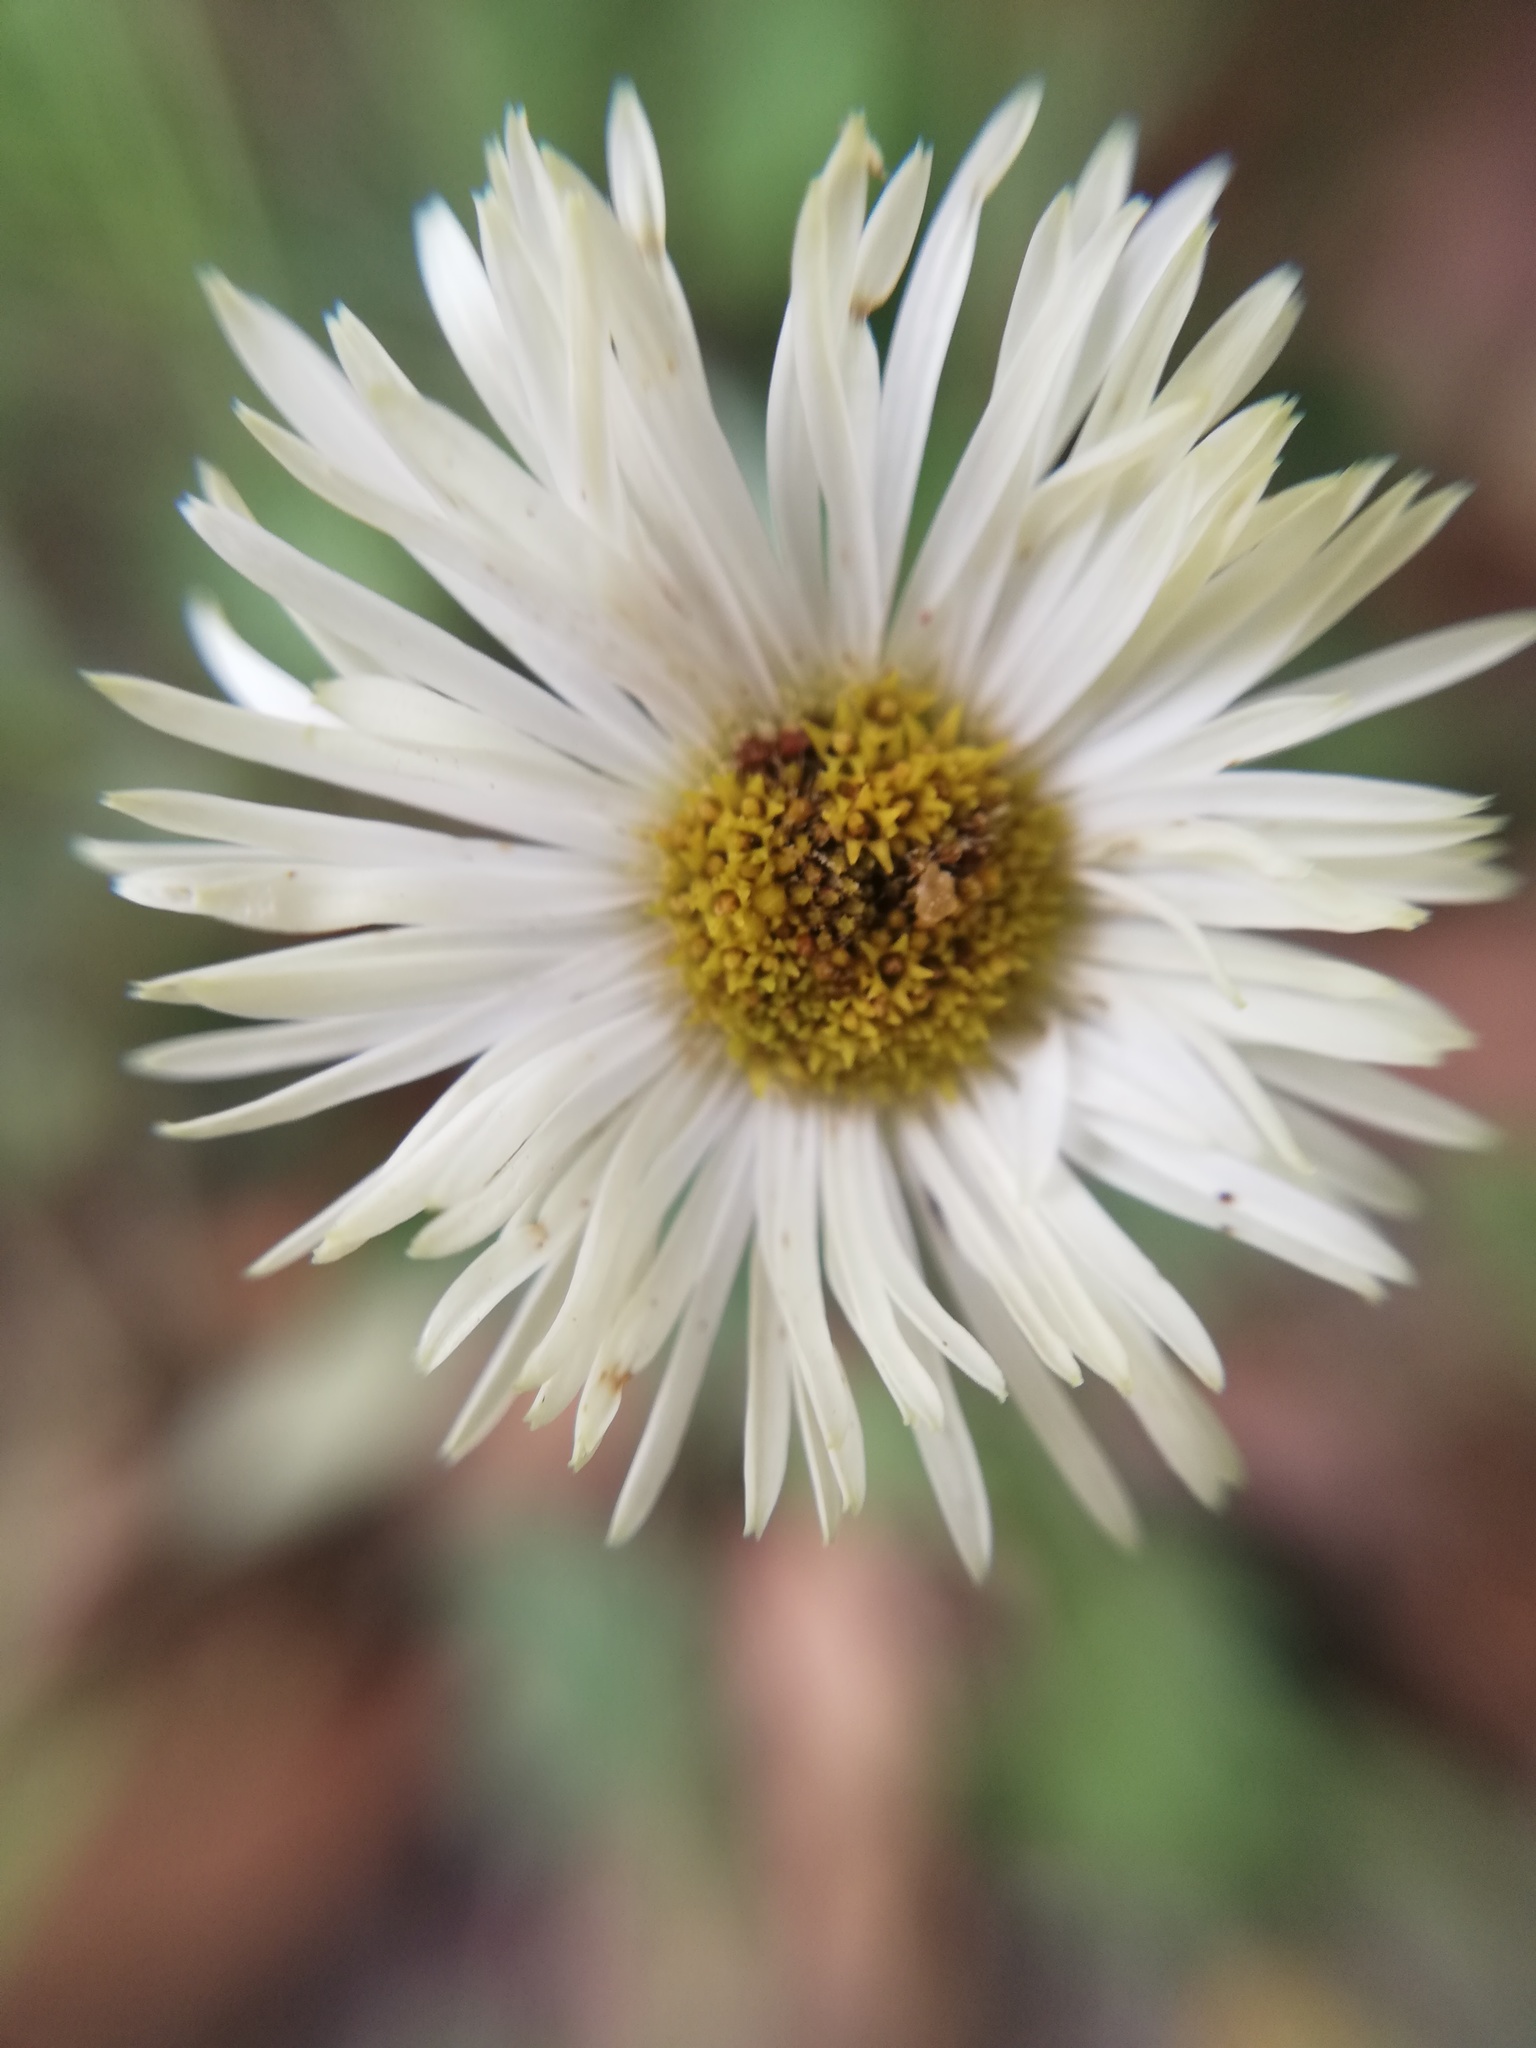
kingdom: Plantae
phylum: Tracheophyta
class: Magnoliopsida
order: Asterales
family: Asteraceae
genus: Erigeron
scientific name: Erigeron veracruzensis
